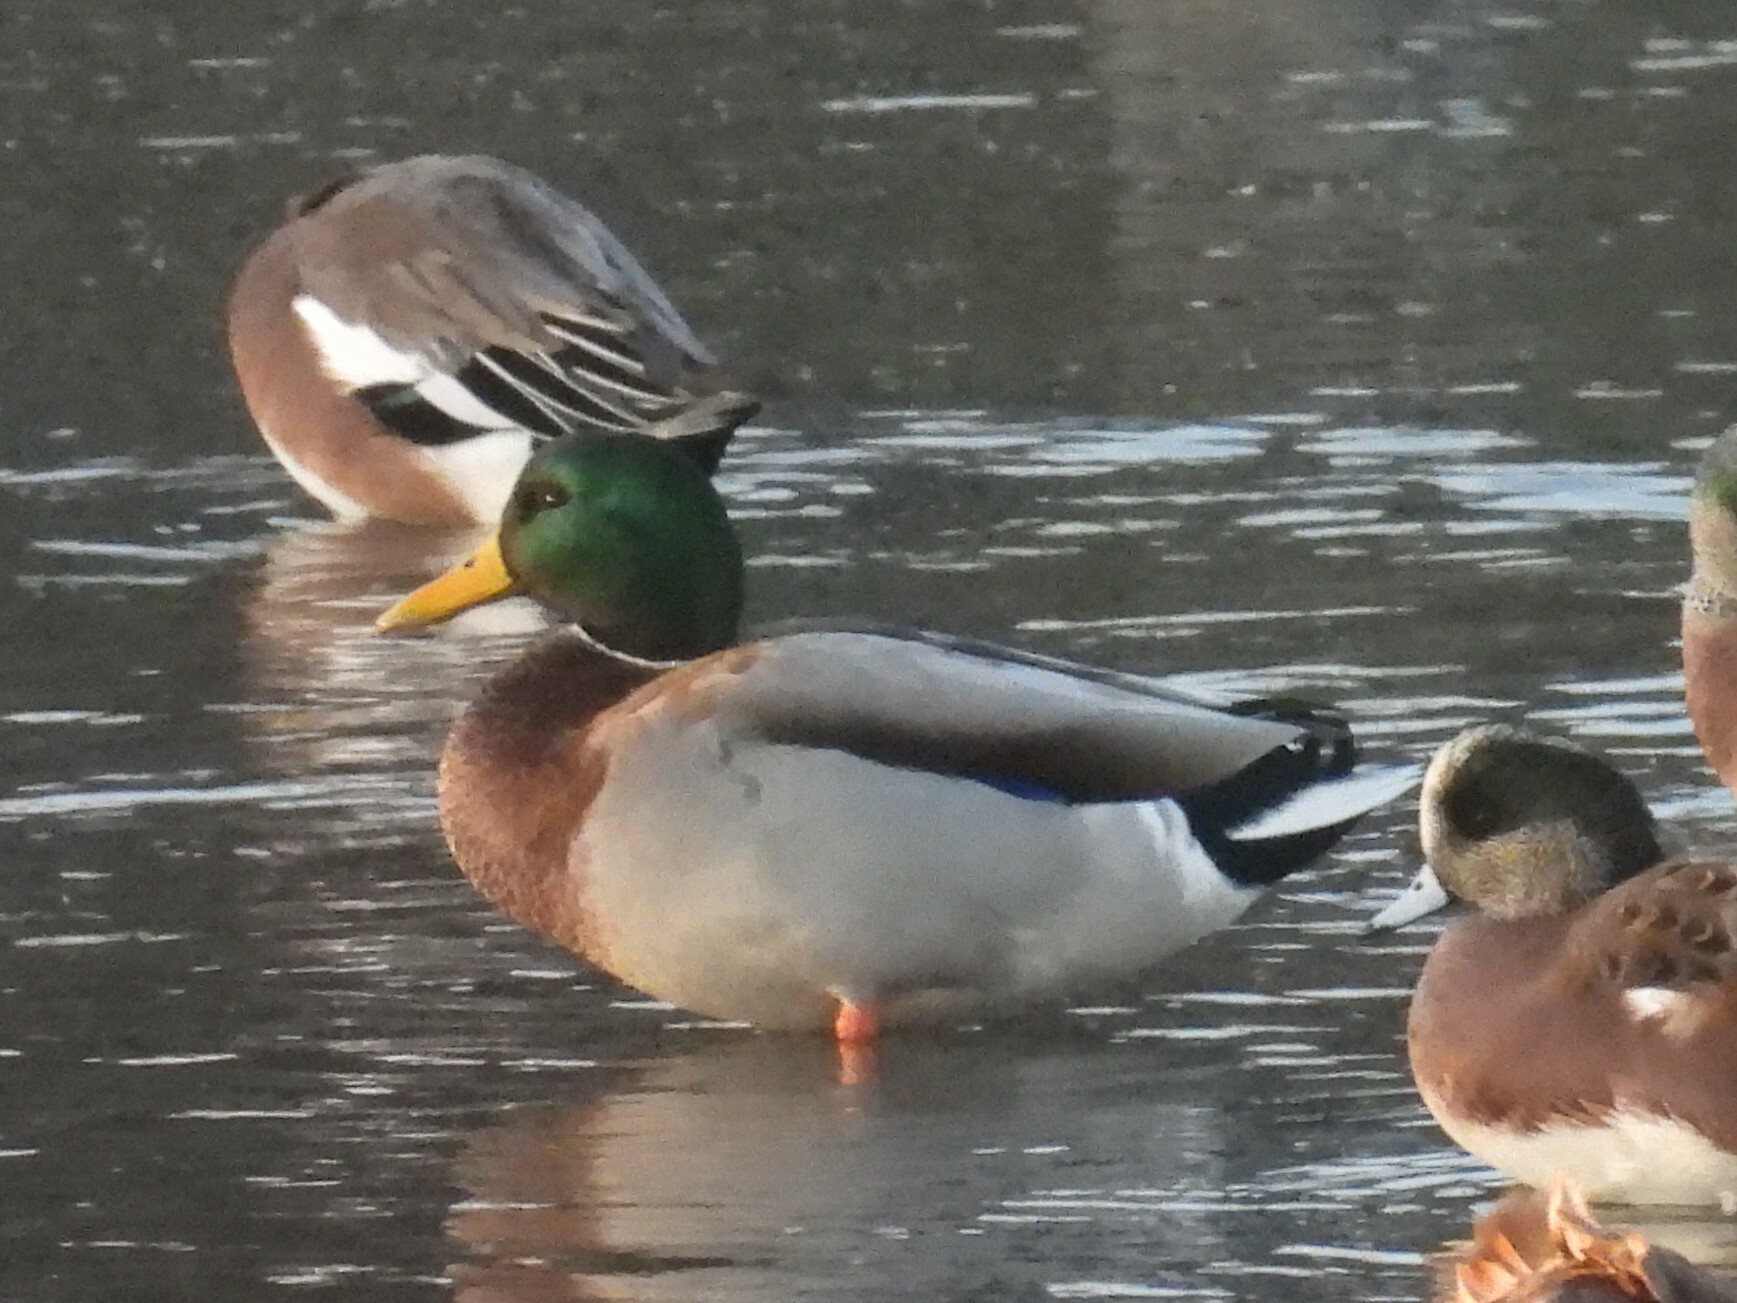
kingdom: Animalia
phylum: Chordata
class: Aves
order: Anseriformes
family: Anatidae
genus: Anas
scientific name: Anas platyrhynchos
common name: Mallard
